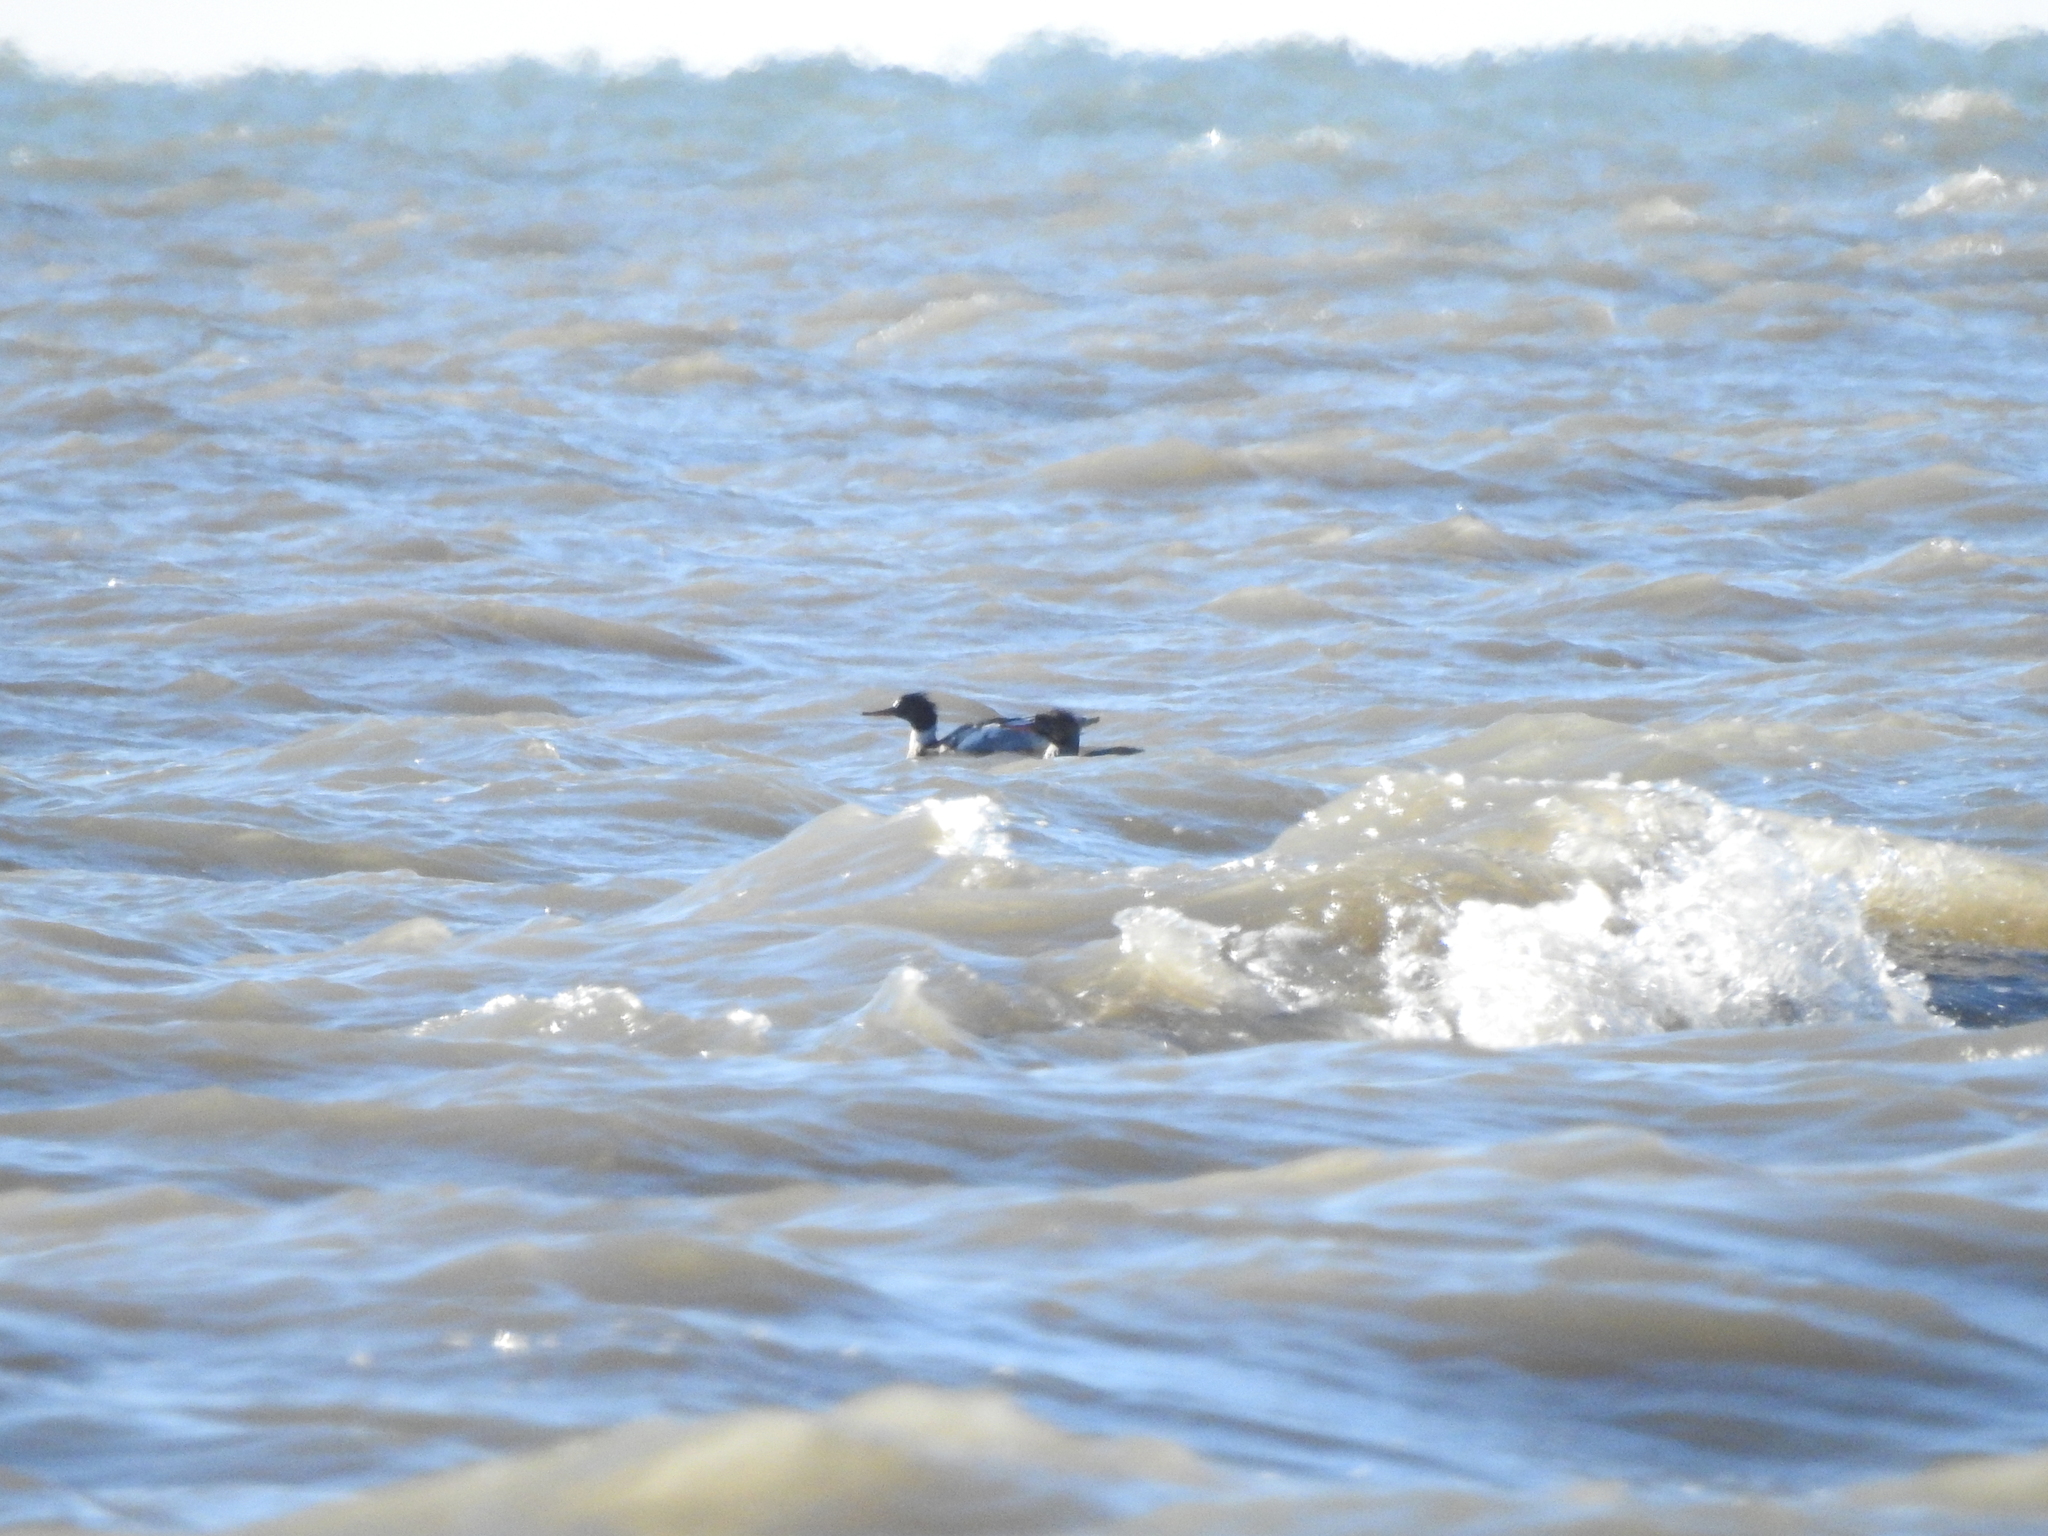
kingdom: Animalia
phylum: Chordata
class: Aves
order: Anseriformes
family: Anatidae
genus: Mergus
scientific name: Mergus serrator
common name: Red-breasted merganser
